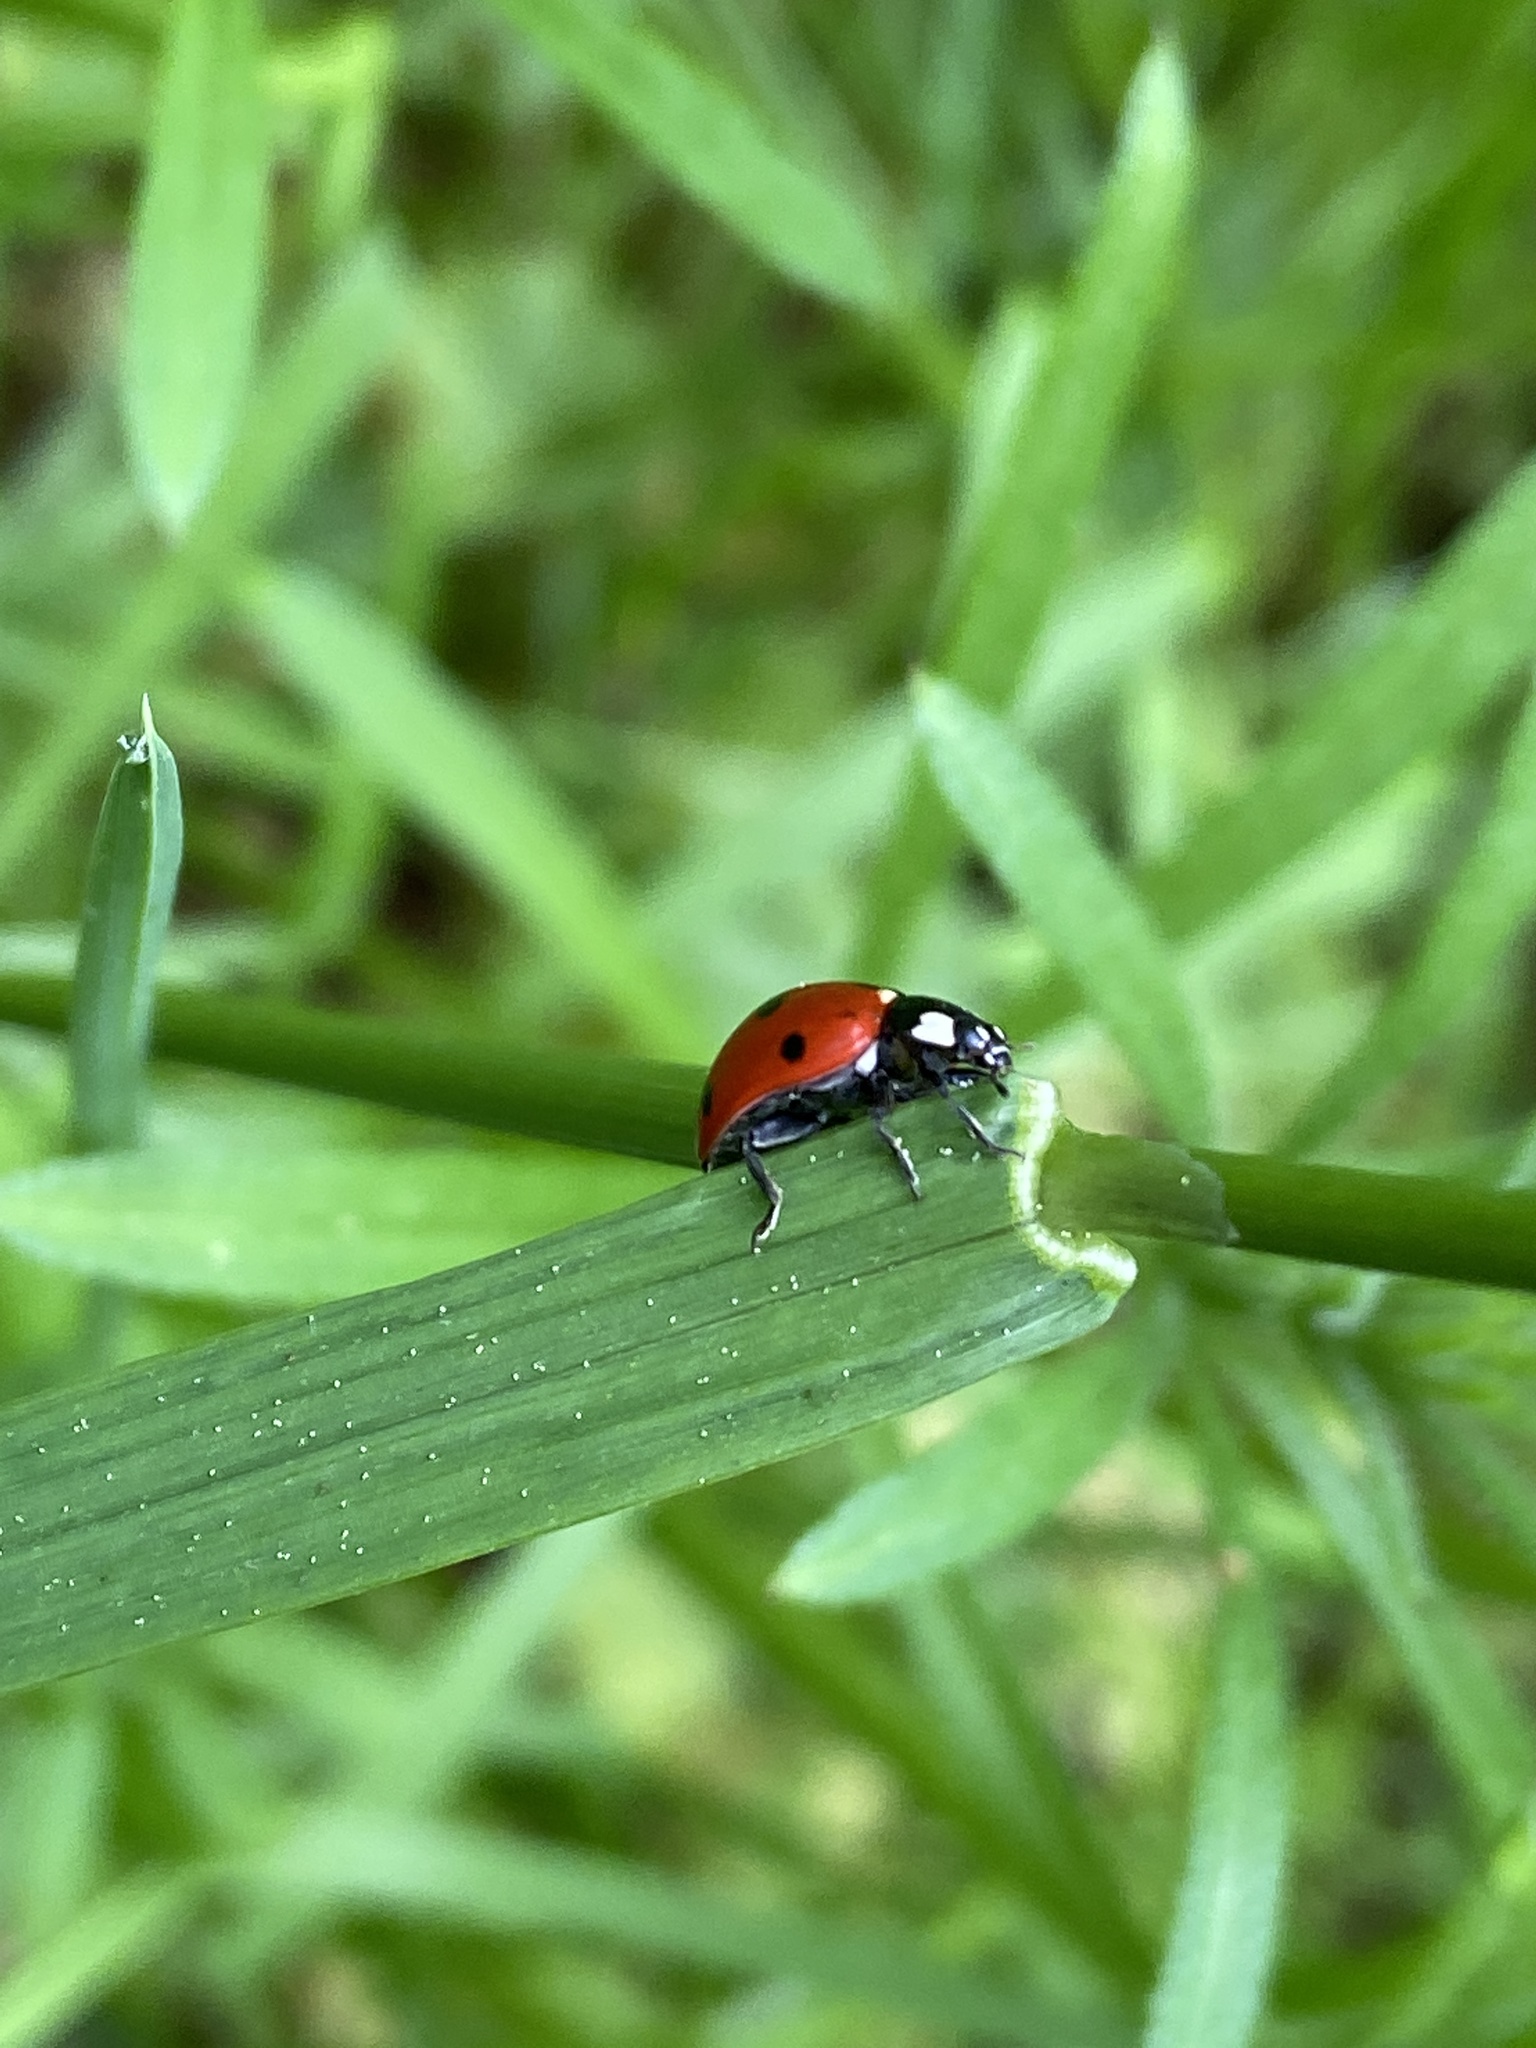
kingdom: Animalia
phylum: Arthropoda
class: Insecta
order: Coleoptera
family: Coccinellidae
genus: Coccinella
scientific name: Coccinella septempunctata
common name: Sevenspotted lady beetle
